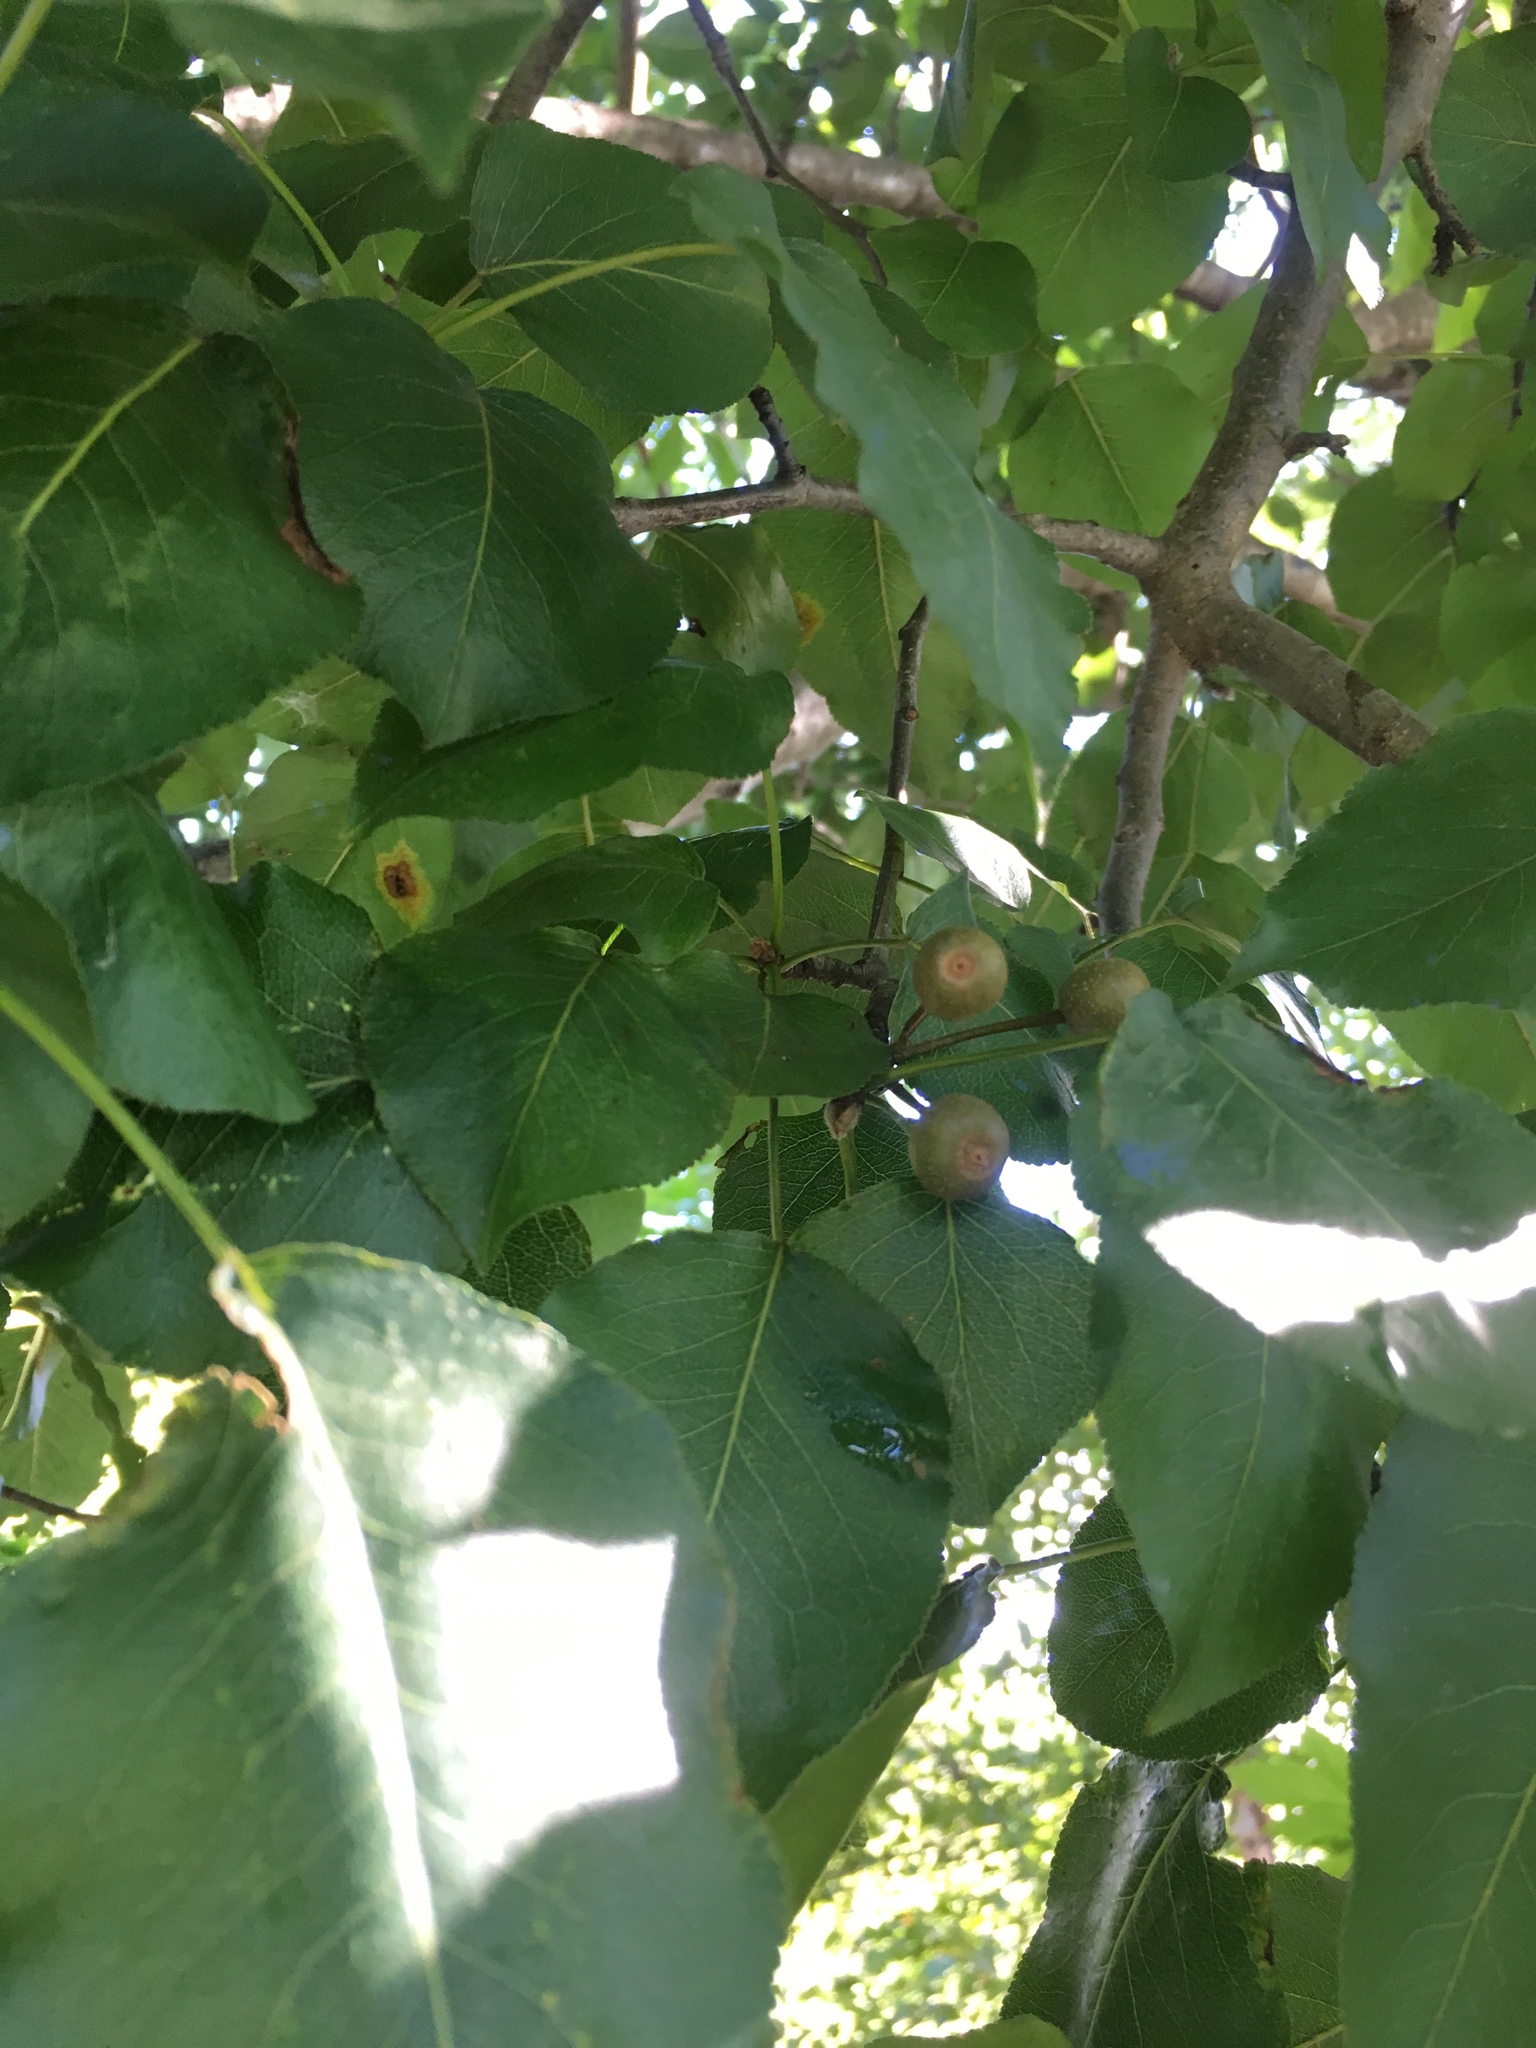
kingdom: Plantae
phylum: Tracheophyta
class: Magnoliopsida
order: Rosales
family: Rosaceae
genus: Pyrus
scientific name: Pyrus calleryana
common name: Callery pear
